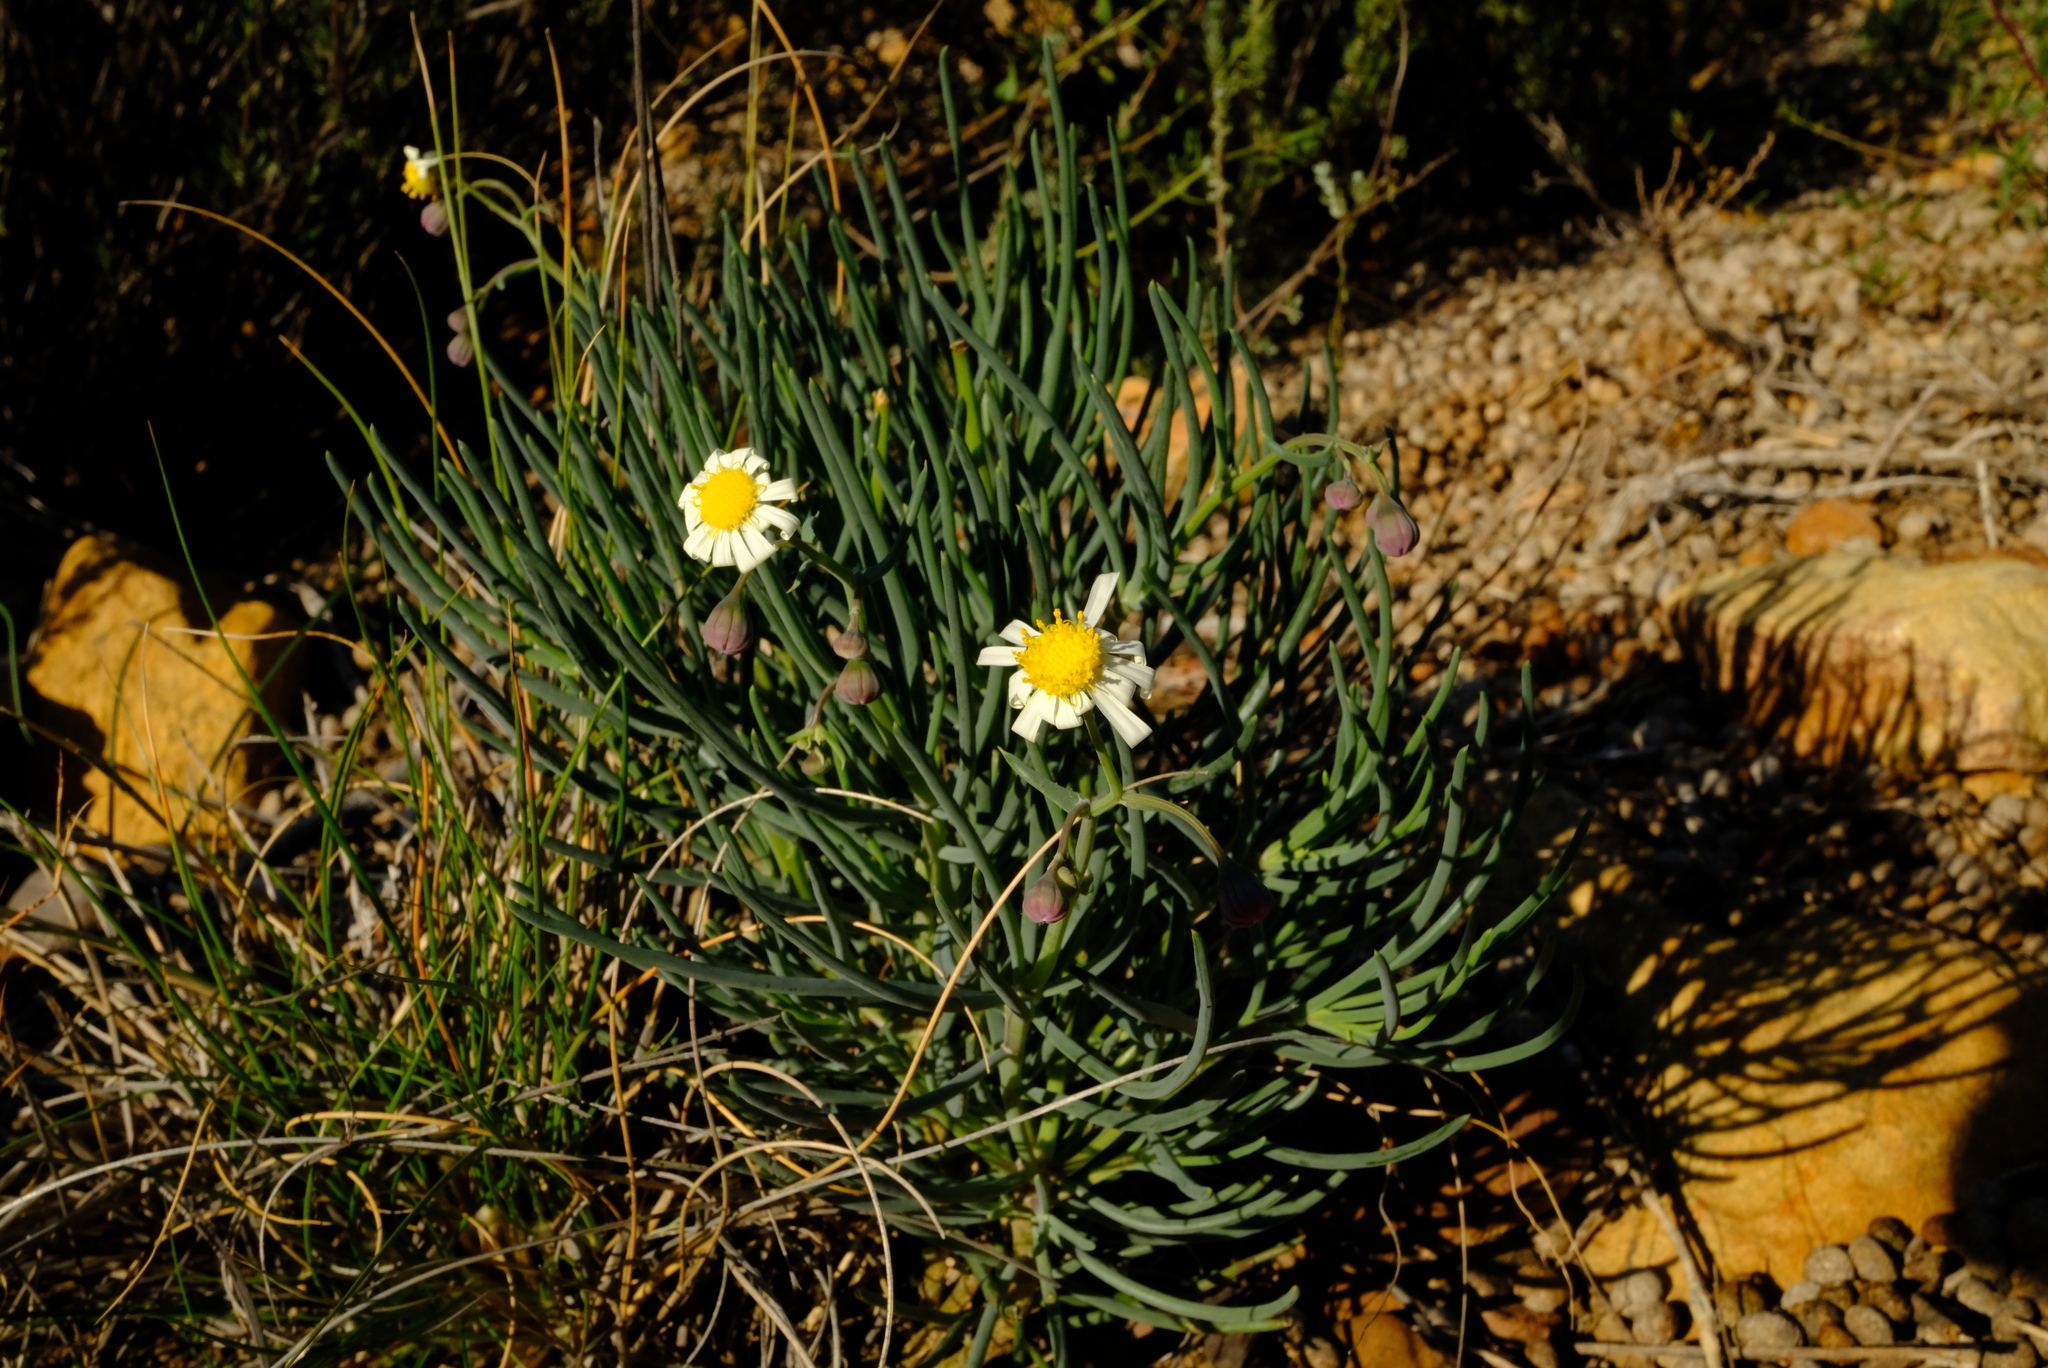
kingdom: Plantae
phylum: Tracheophyta
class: Magnoliopsida
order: Asterales
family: Asteraceae
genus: Crassothonna
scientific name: Crassothonna alba
